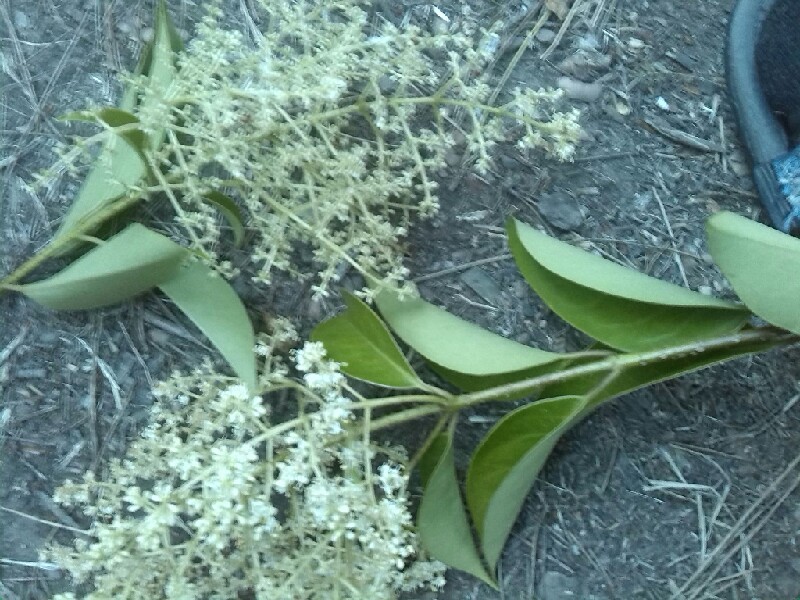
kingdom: Plantae
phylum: Tracheophyta
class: Magnoliopsida
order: Lamiales
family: Oleaceae
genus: Ligustrum
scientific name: Ligustrum lucidum
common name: Glossy privet
